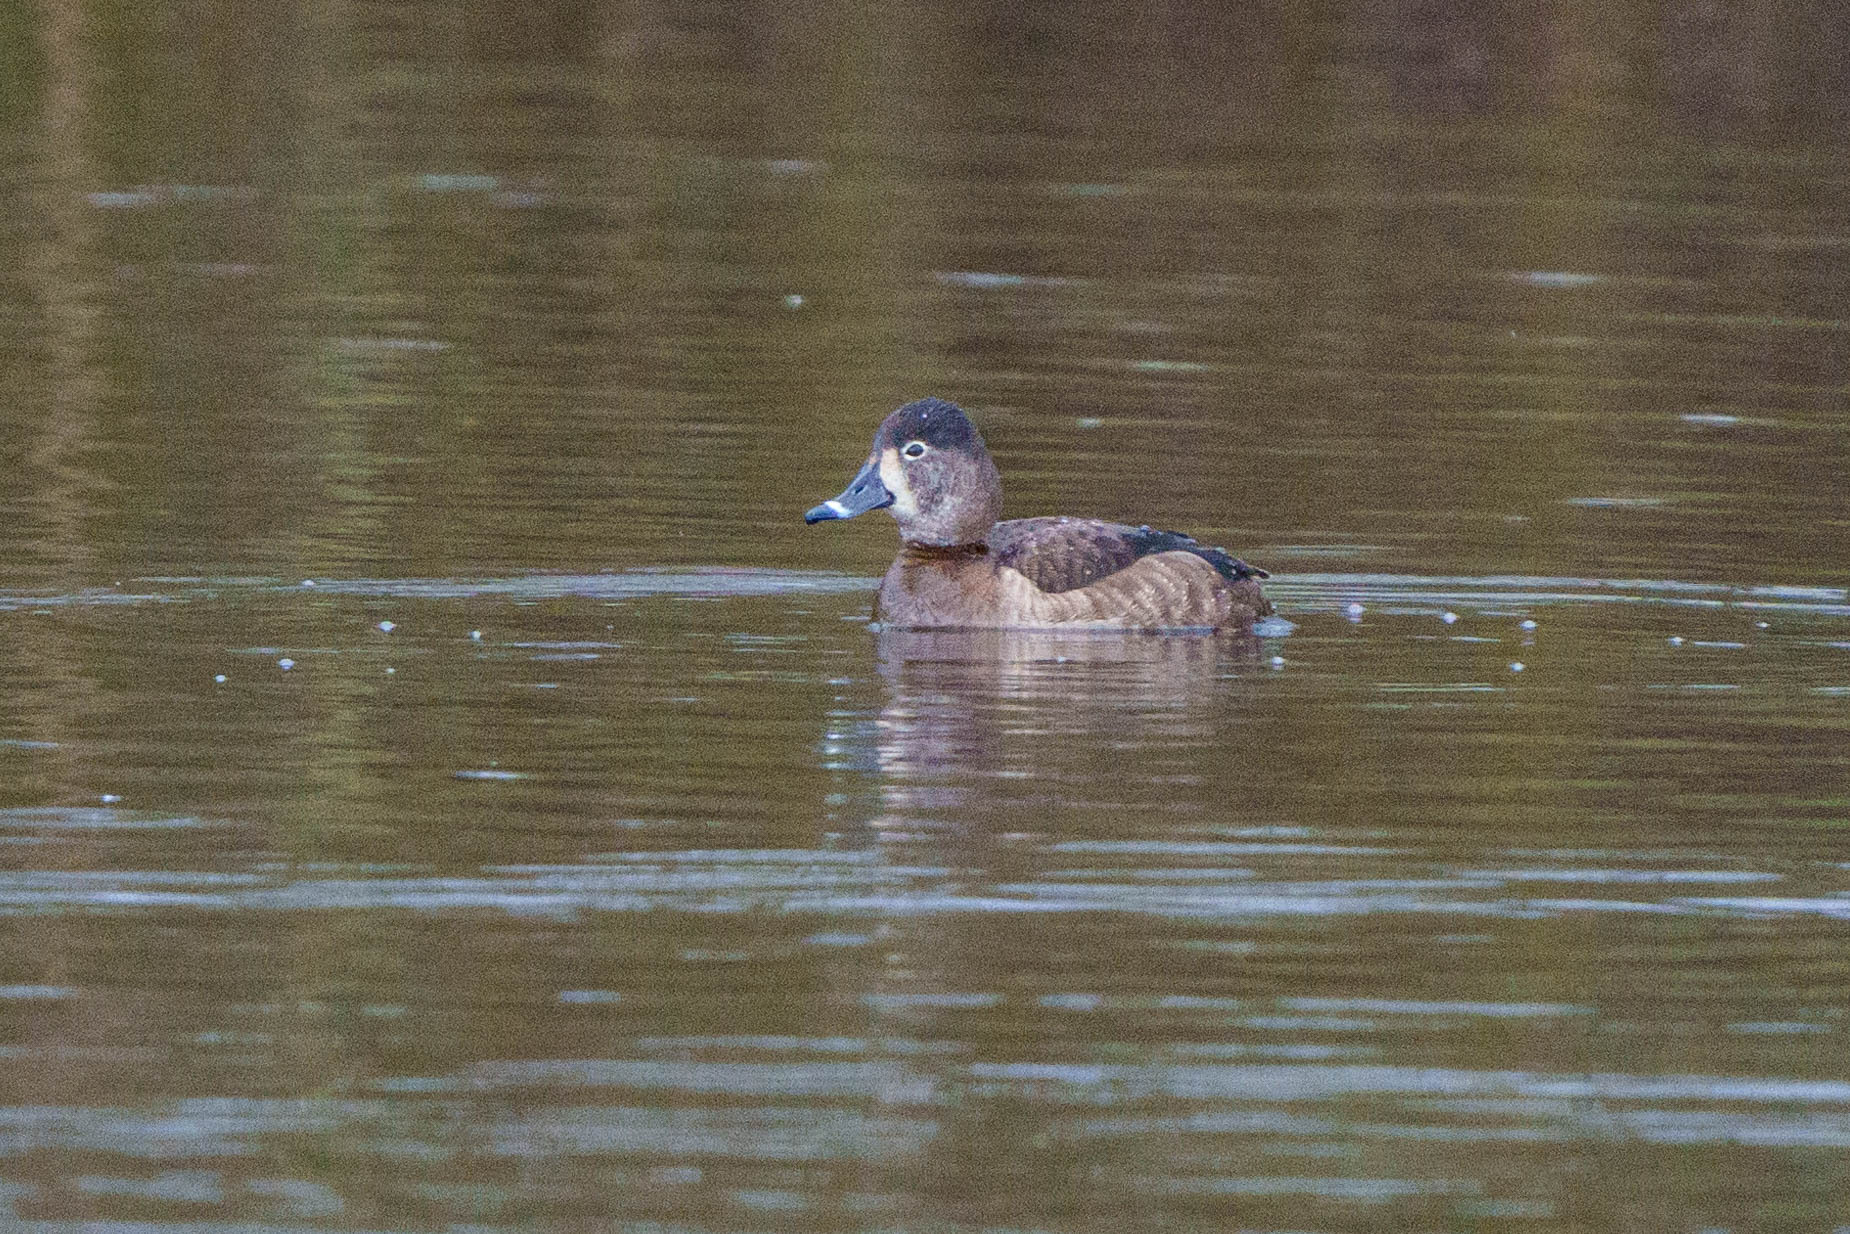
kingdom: Animalia
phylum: Chordata
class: Aves
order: Anseriformes
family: Anatidae
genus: Aythya
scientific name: Aythya collaris
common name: Ring-necked duck
